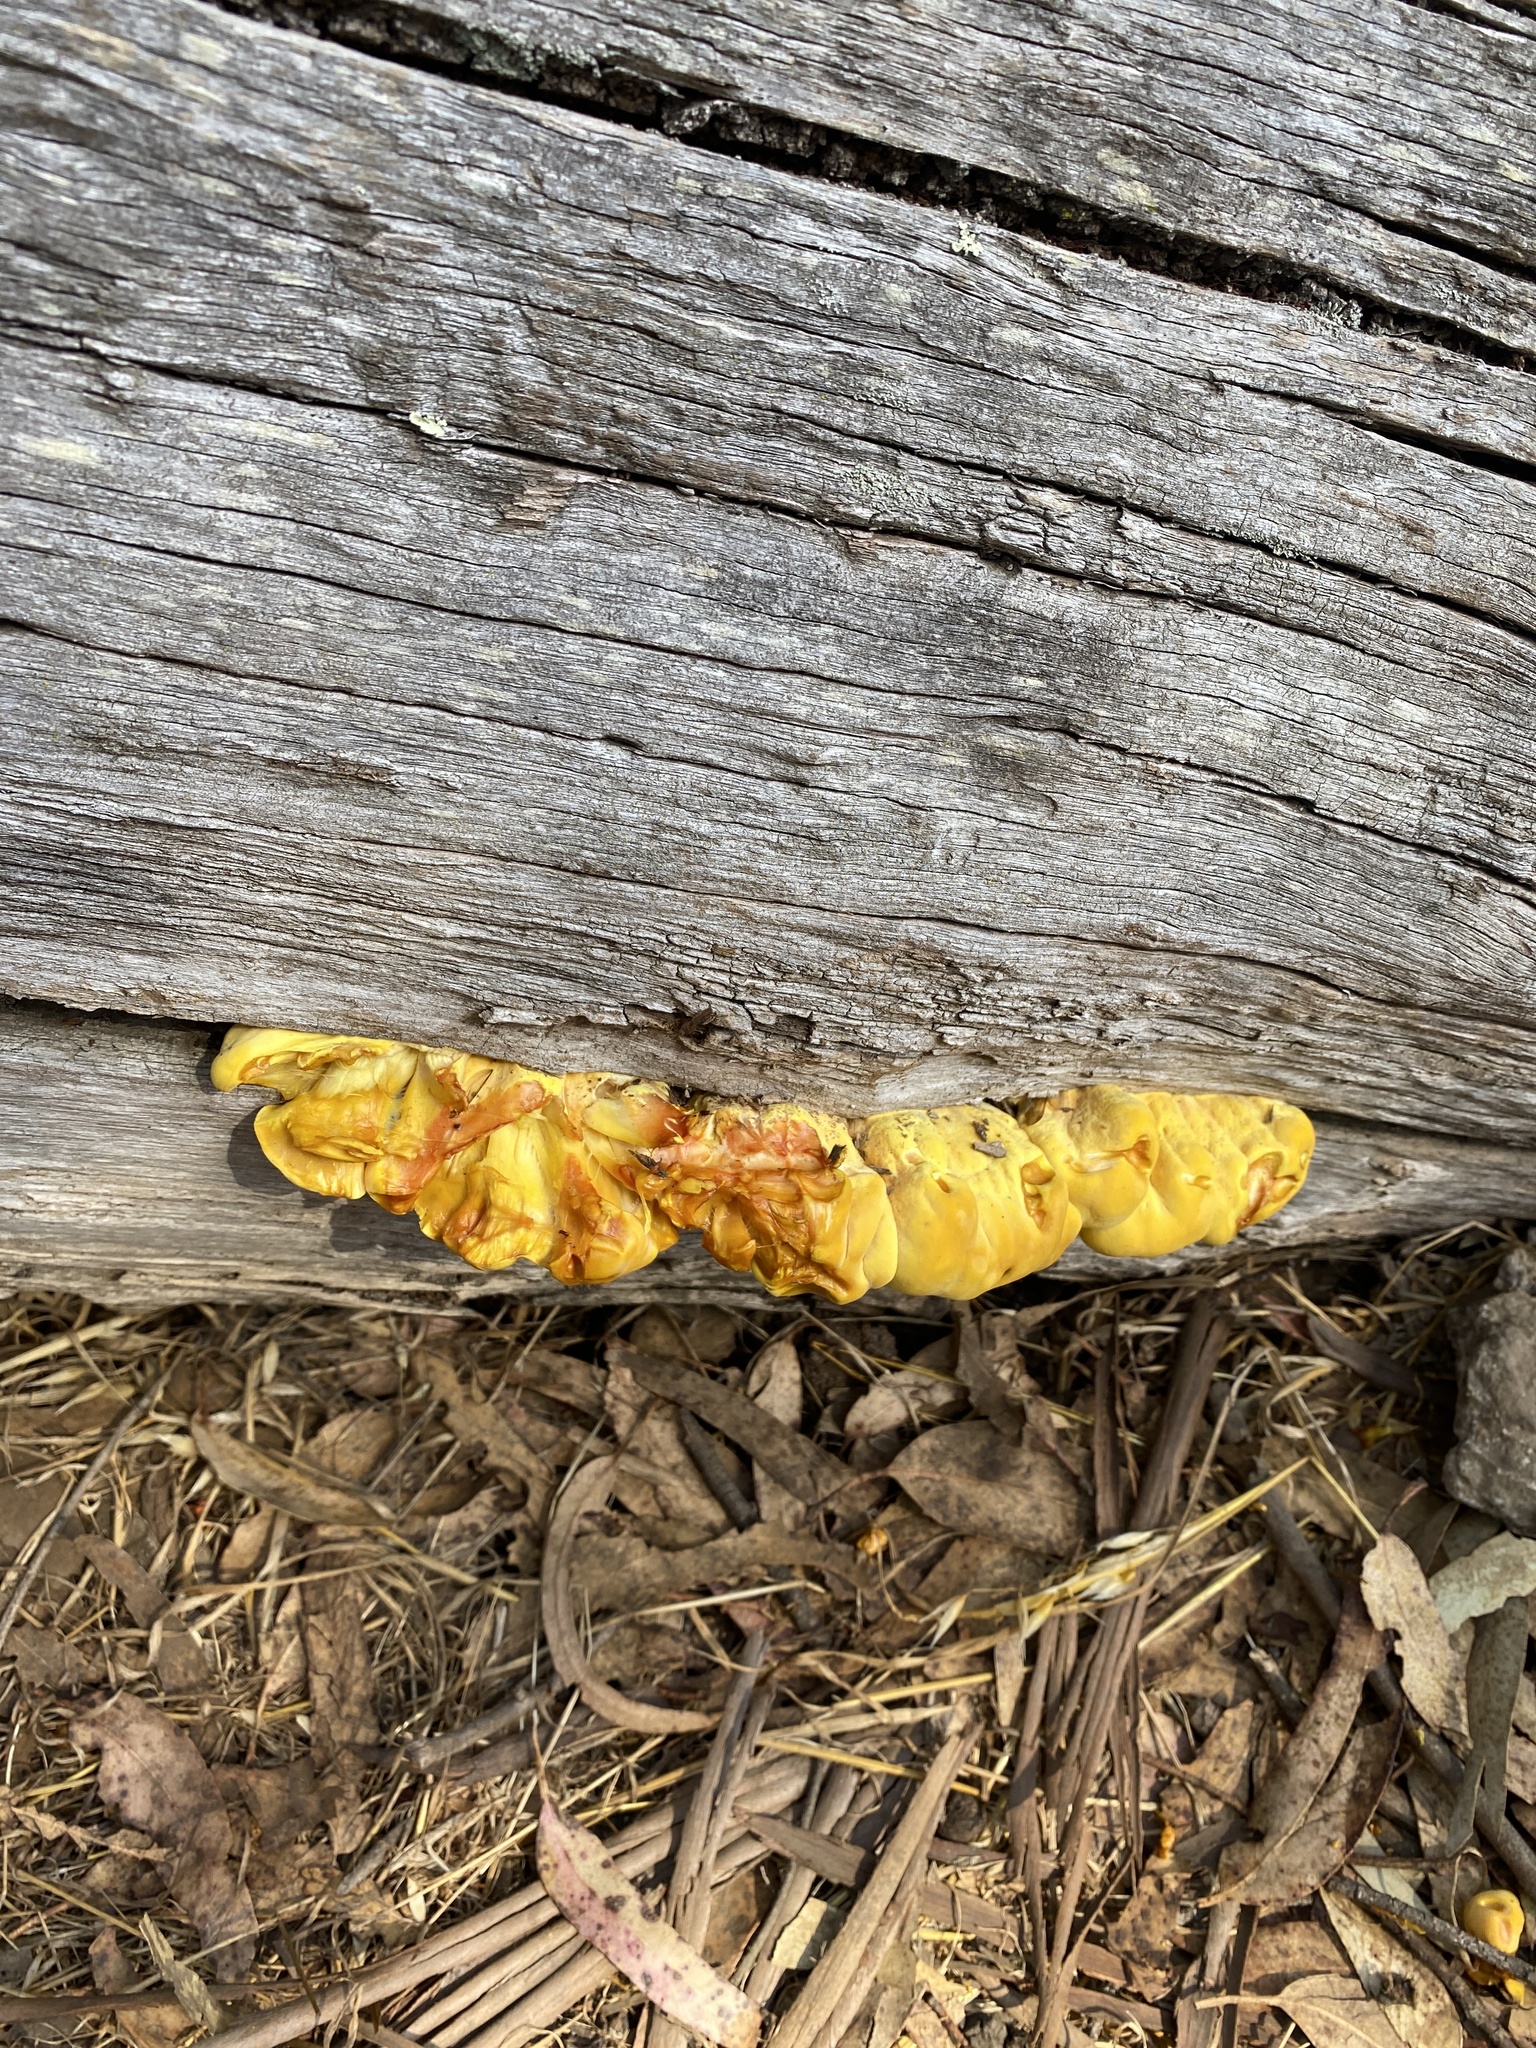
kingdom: Fungi
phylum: Basidiomycota
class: Agaricomycetes
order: Polyporales
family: Laetiporaceae
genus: Laetiporus
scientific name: Laetiporus conifericola
